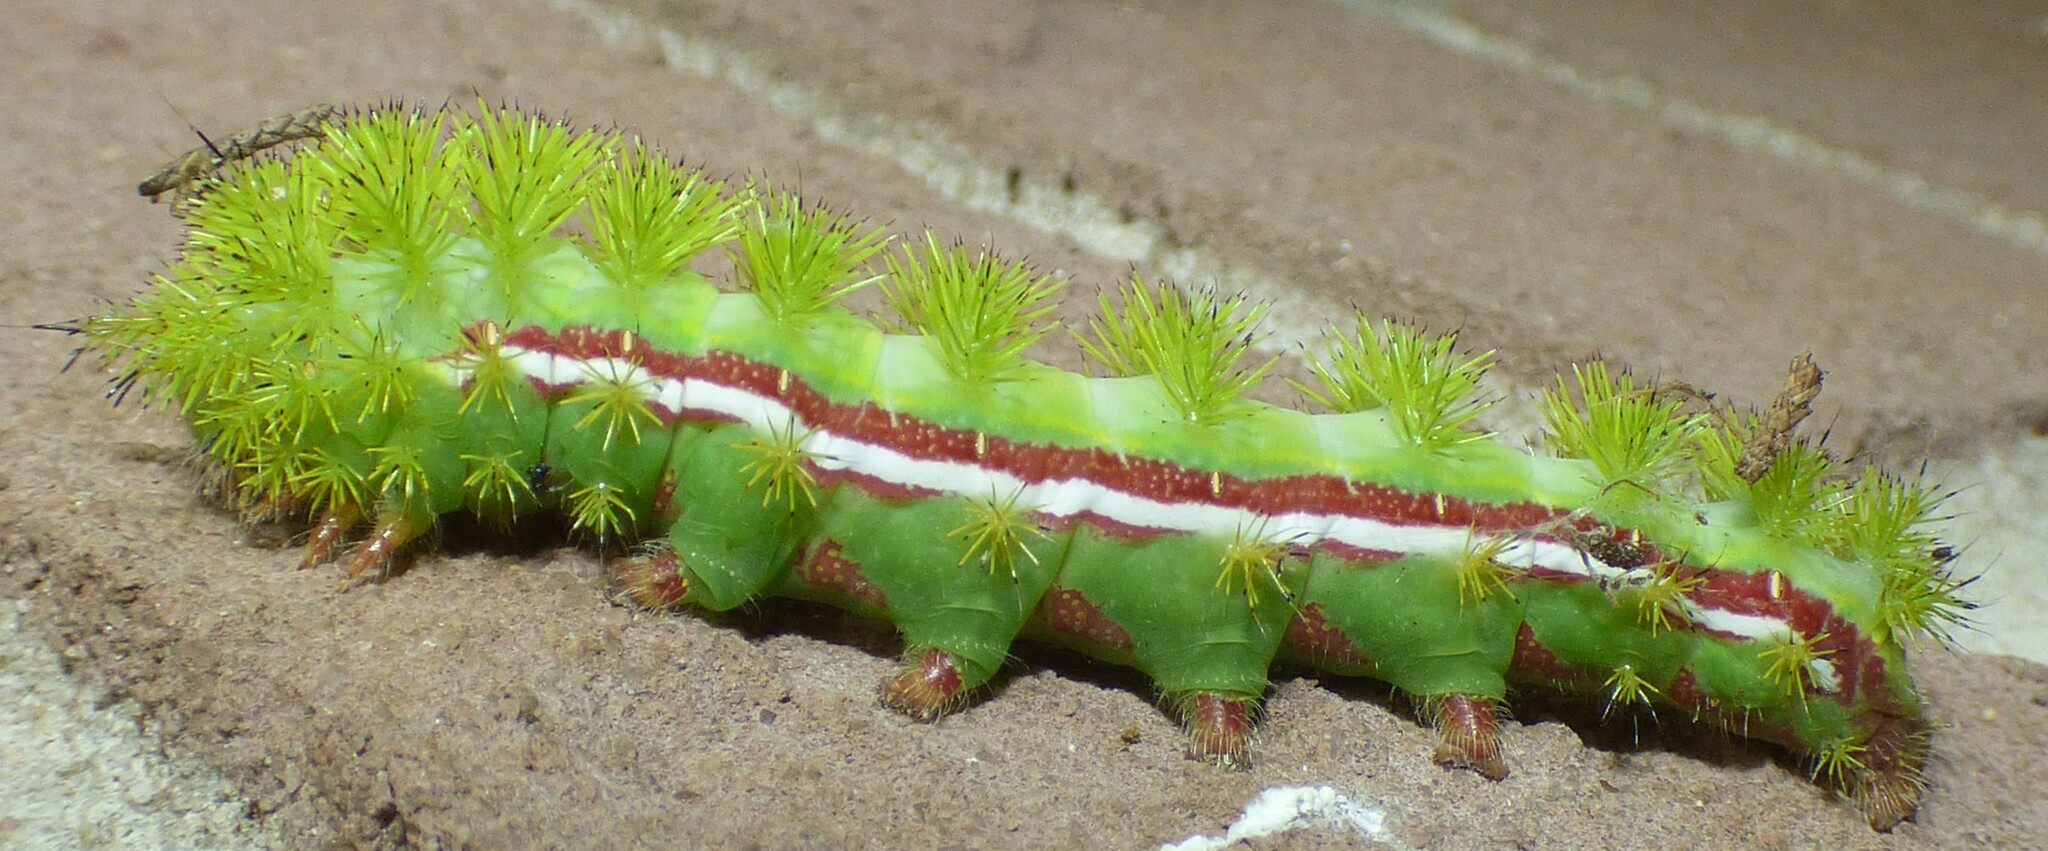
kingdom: Animalia
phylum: Arthropoda
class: Insecta
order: Lepidoptera
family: Saturniidae
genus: Automeris
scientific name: Automeris io
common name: Io moth
